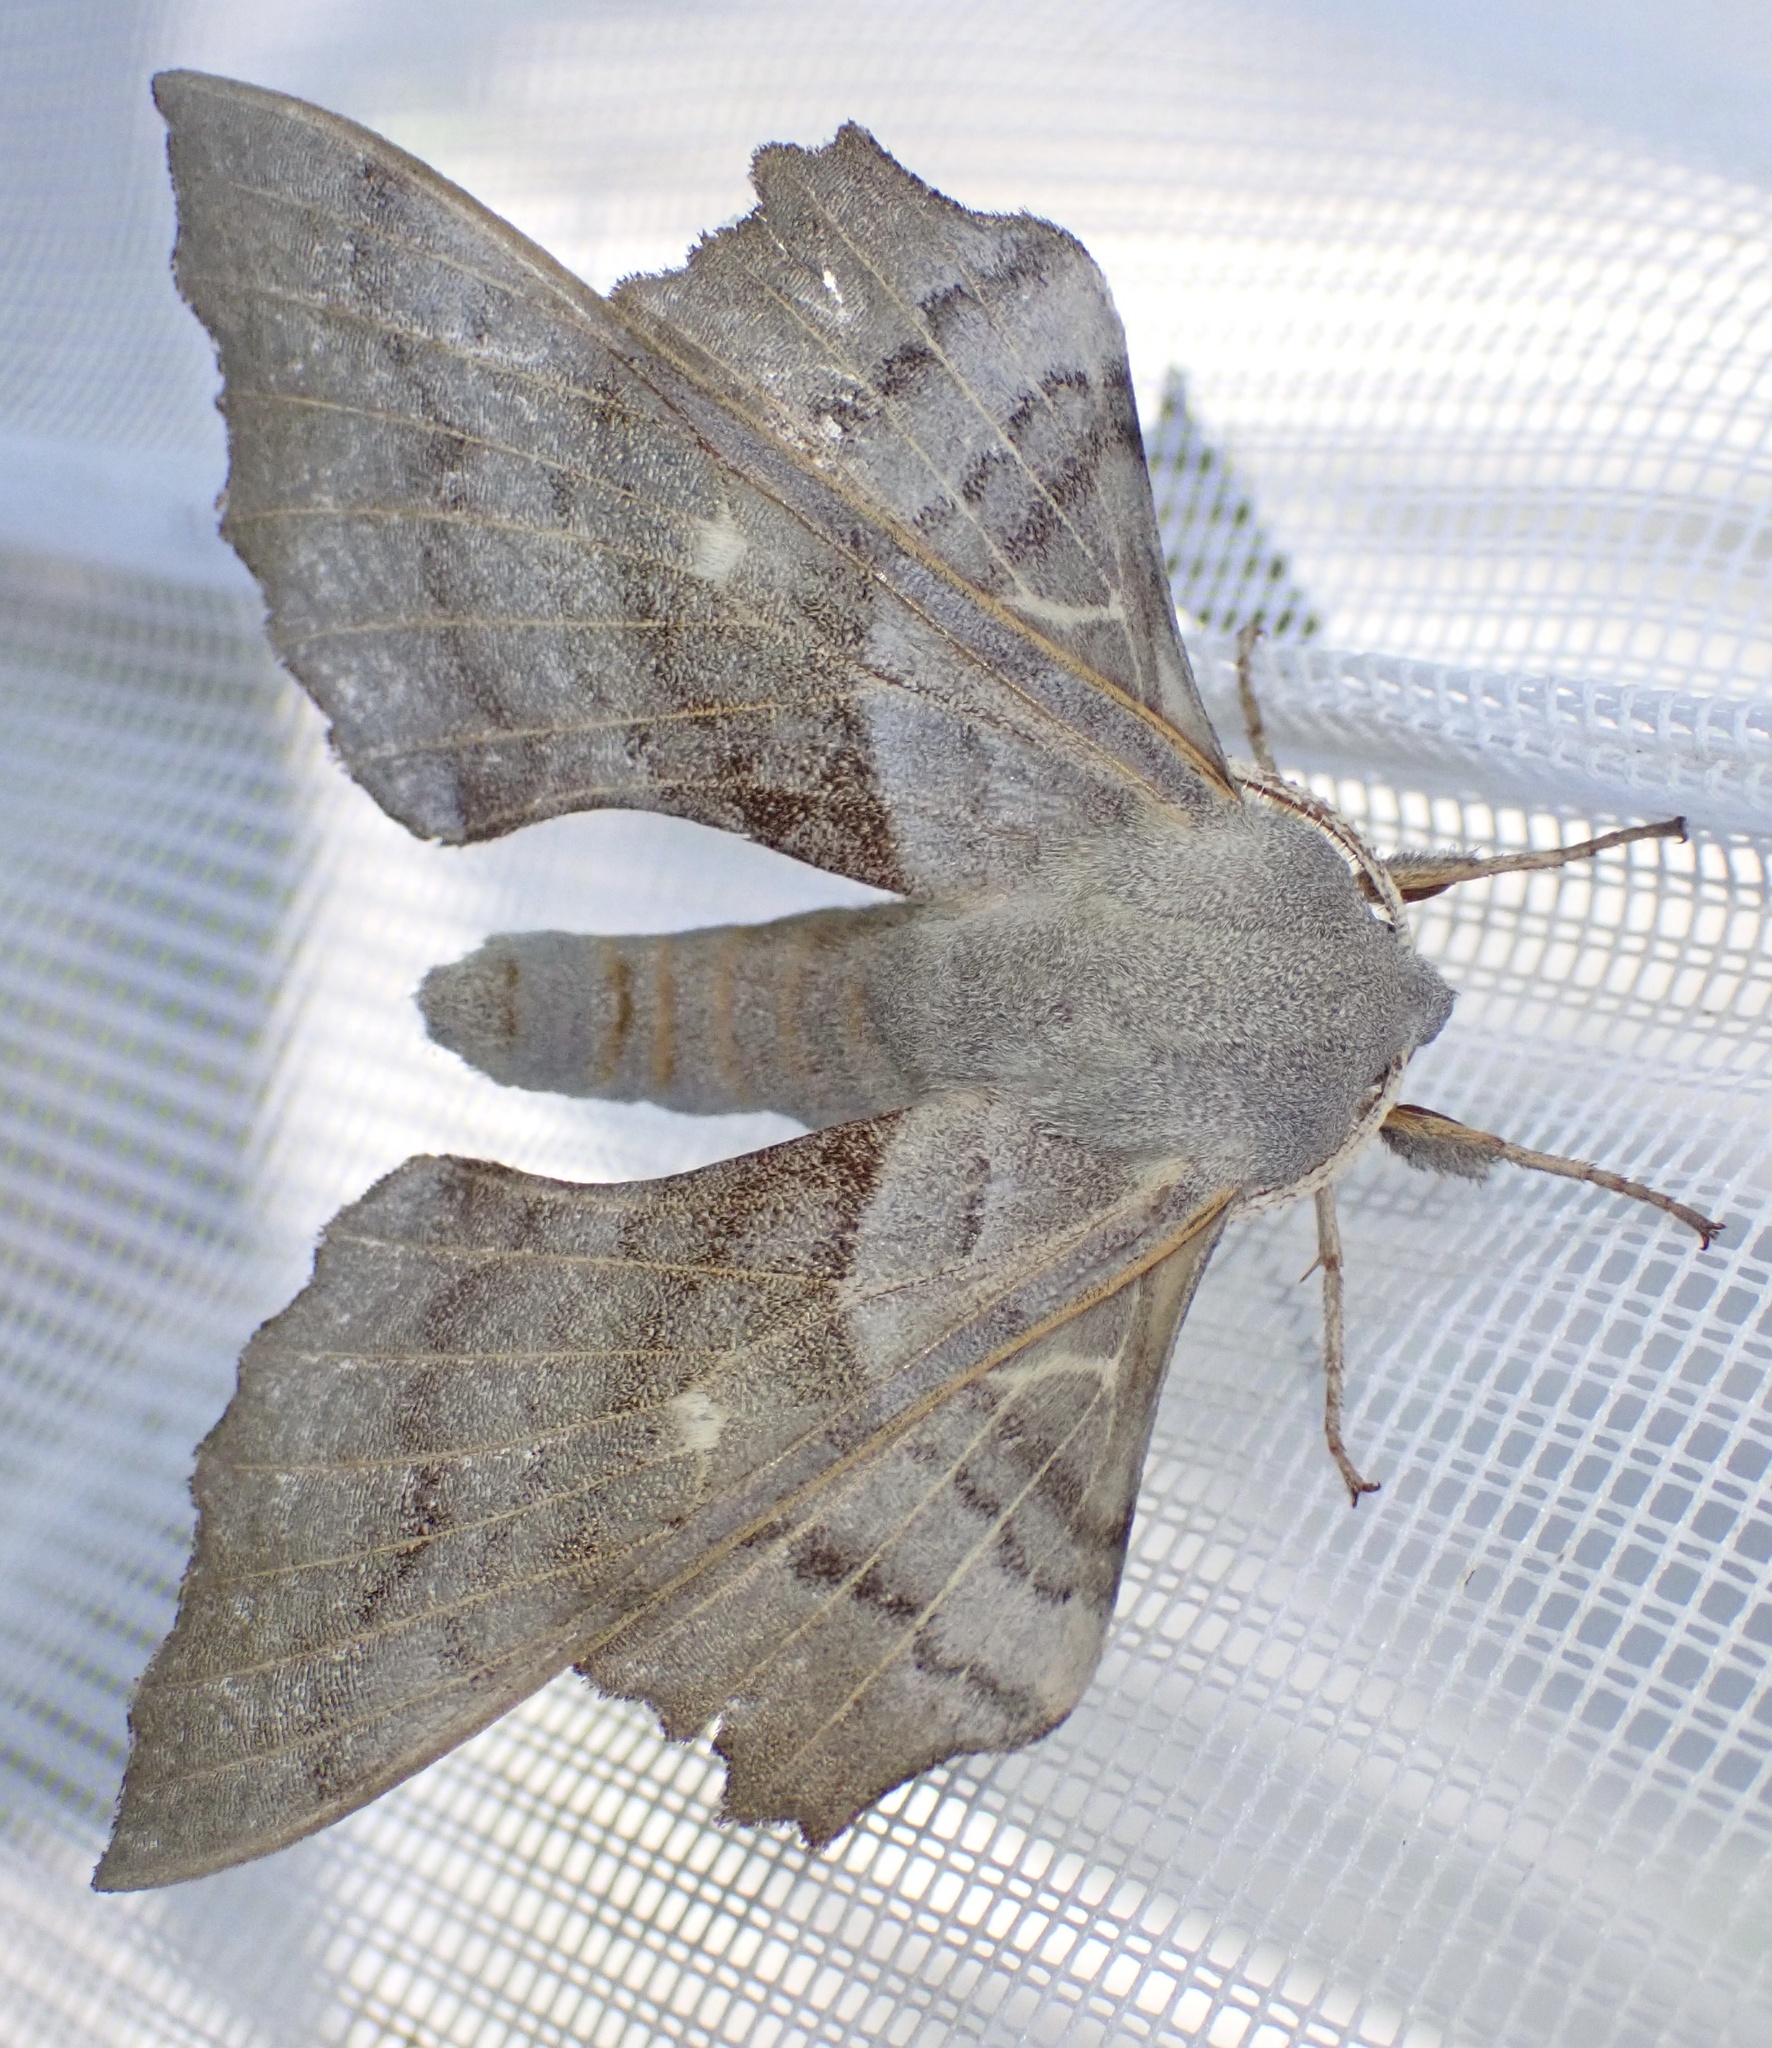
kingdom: Animalia
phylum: Arthropoda
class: Insecta
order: Lepidoptera
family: Sphingidae
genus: Laothoe
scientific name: Laothoe populi
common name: Poplar hawk-moth
